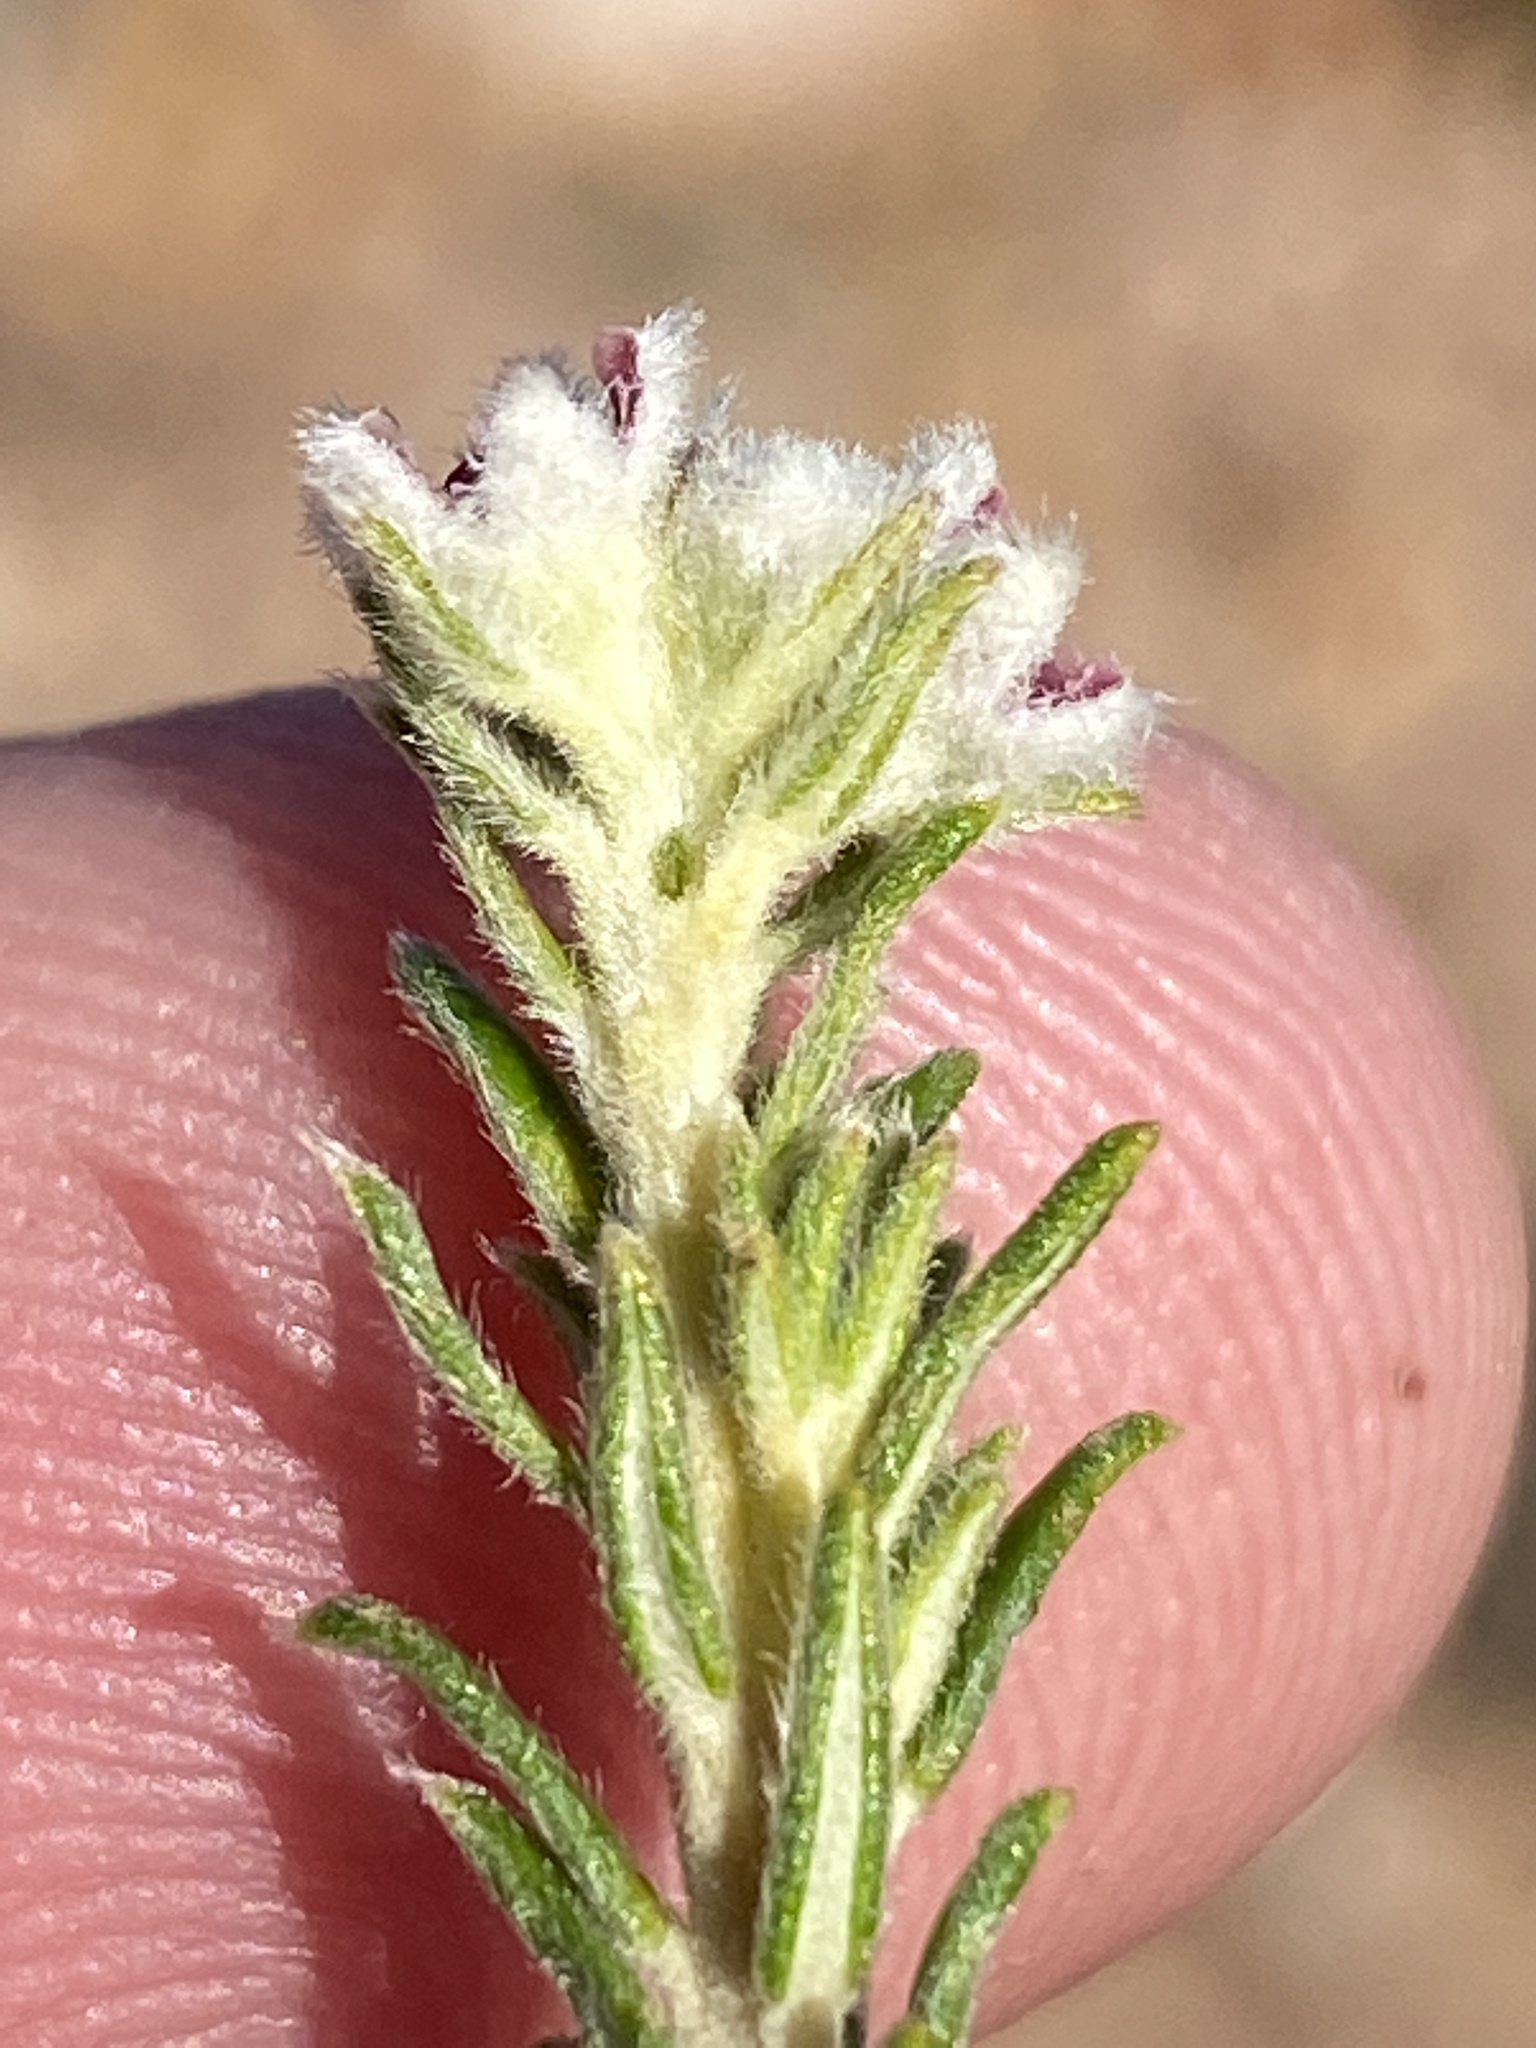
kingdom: Plantae
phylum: Tracheophyta
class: Magnoliopsida
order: Rosales
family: Rhamnaceae
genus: Phylica
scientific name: Phylica lanata
